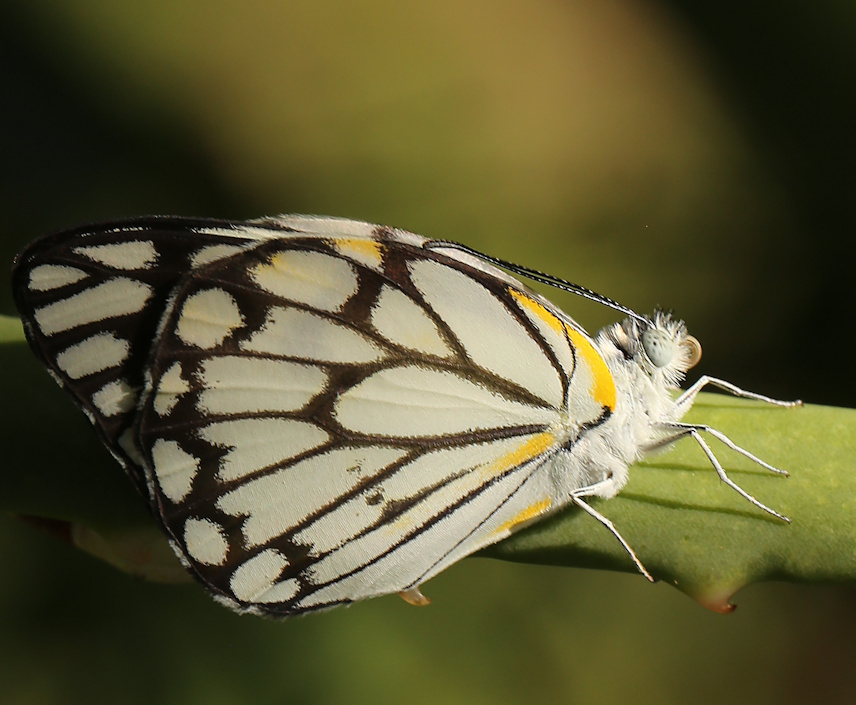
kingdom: Animalia
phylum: Arthropoda
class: Insecta
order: Lepidoptera
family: Pieridae
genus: Belenois
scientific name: Belenois aurota
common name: Brown-veined white
